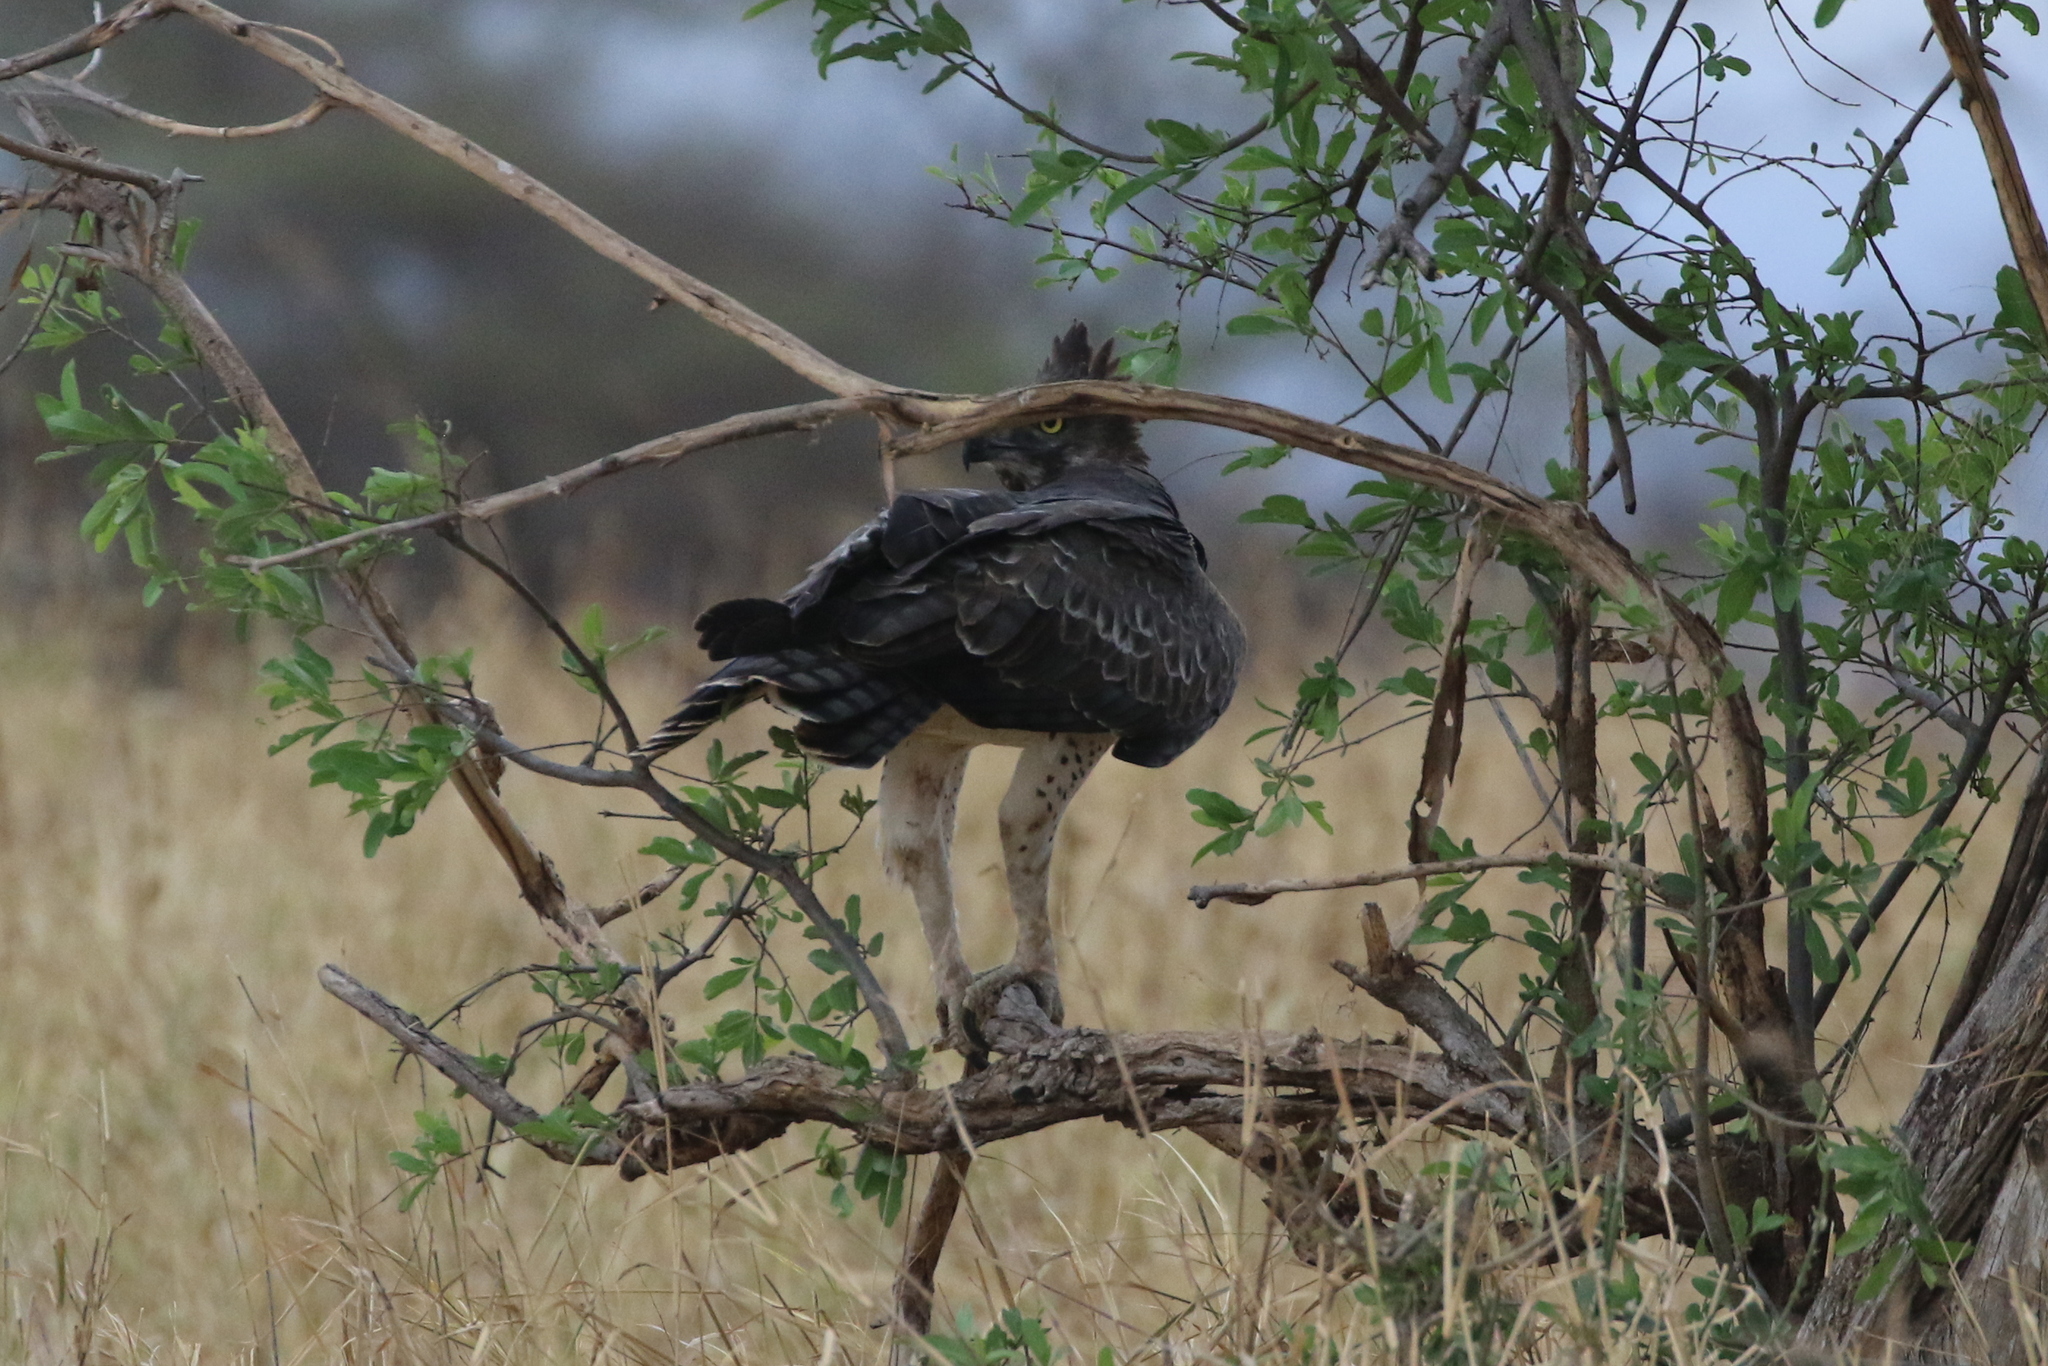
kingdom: Animalia
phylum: Chordata
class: Aves
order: Accipitriformes
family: Accipitridae
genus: Polemaetus
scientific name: Polemaetus bellicosus
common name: Martial eagle
